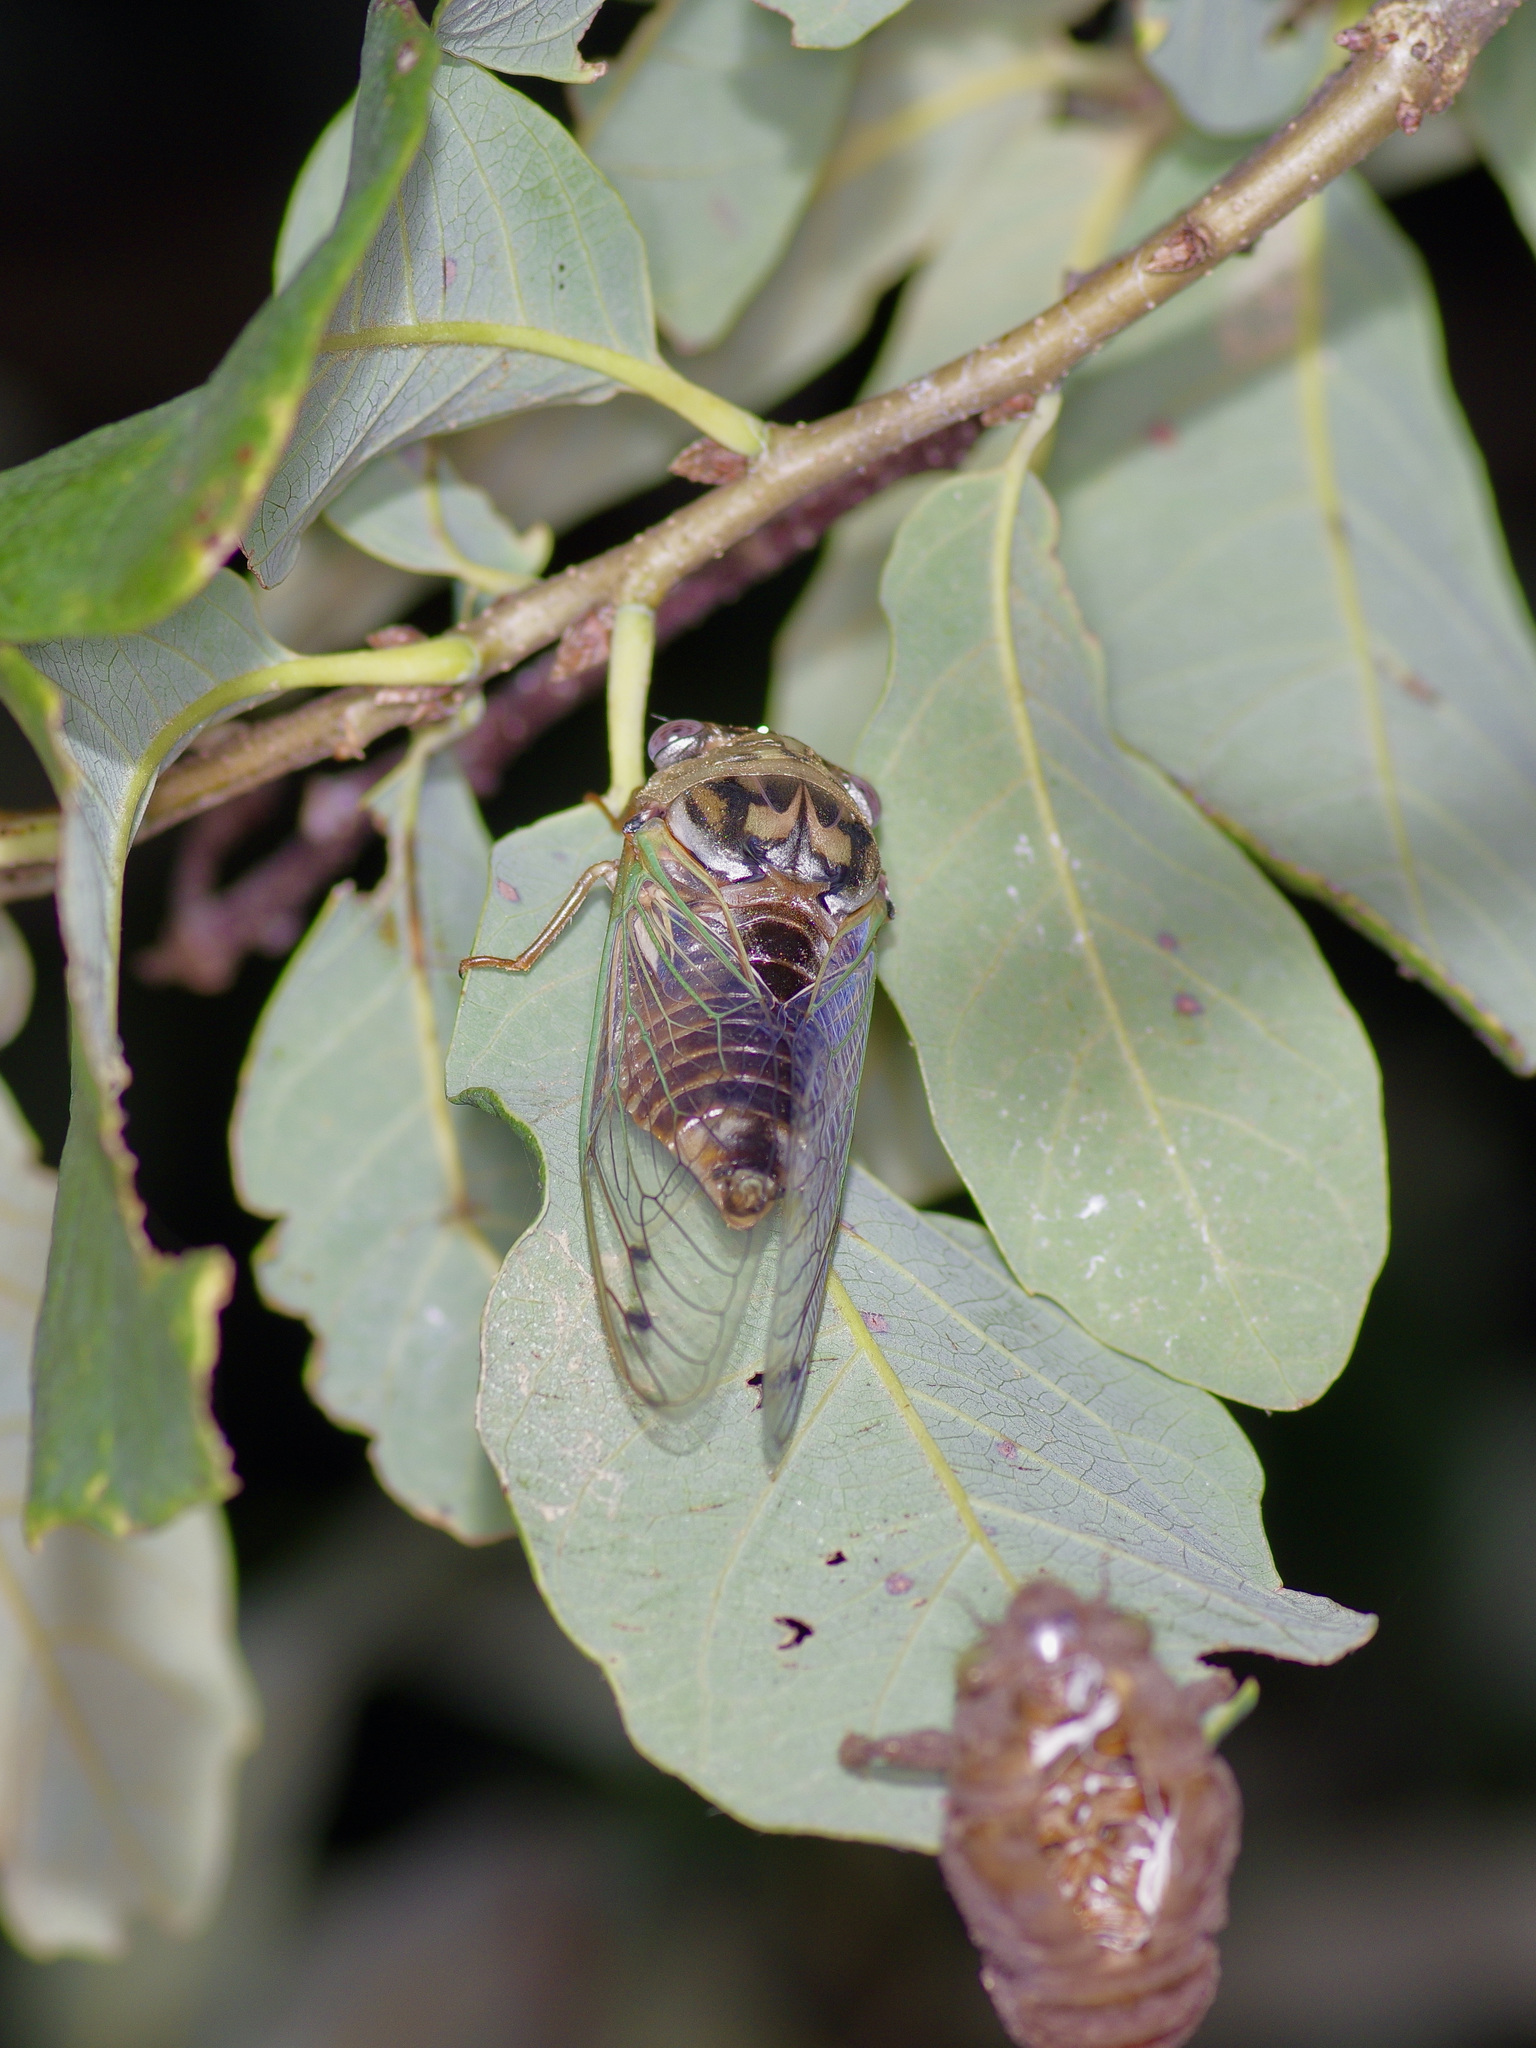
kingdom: Animalia
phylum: Arthropoda
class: Insecta
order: Hemiptera
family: Cicadidae
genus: Megatibicen
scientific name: Megatibicen resh
